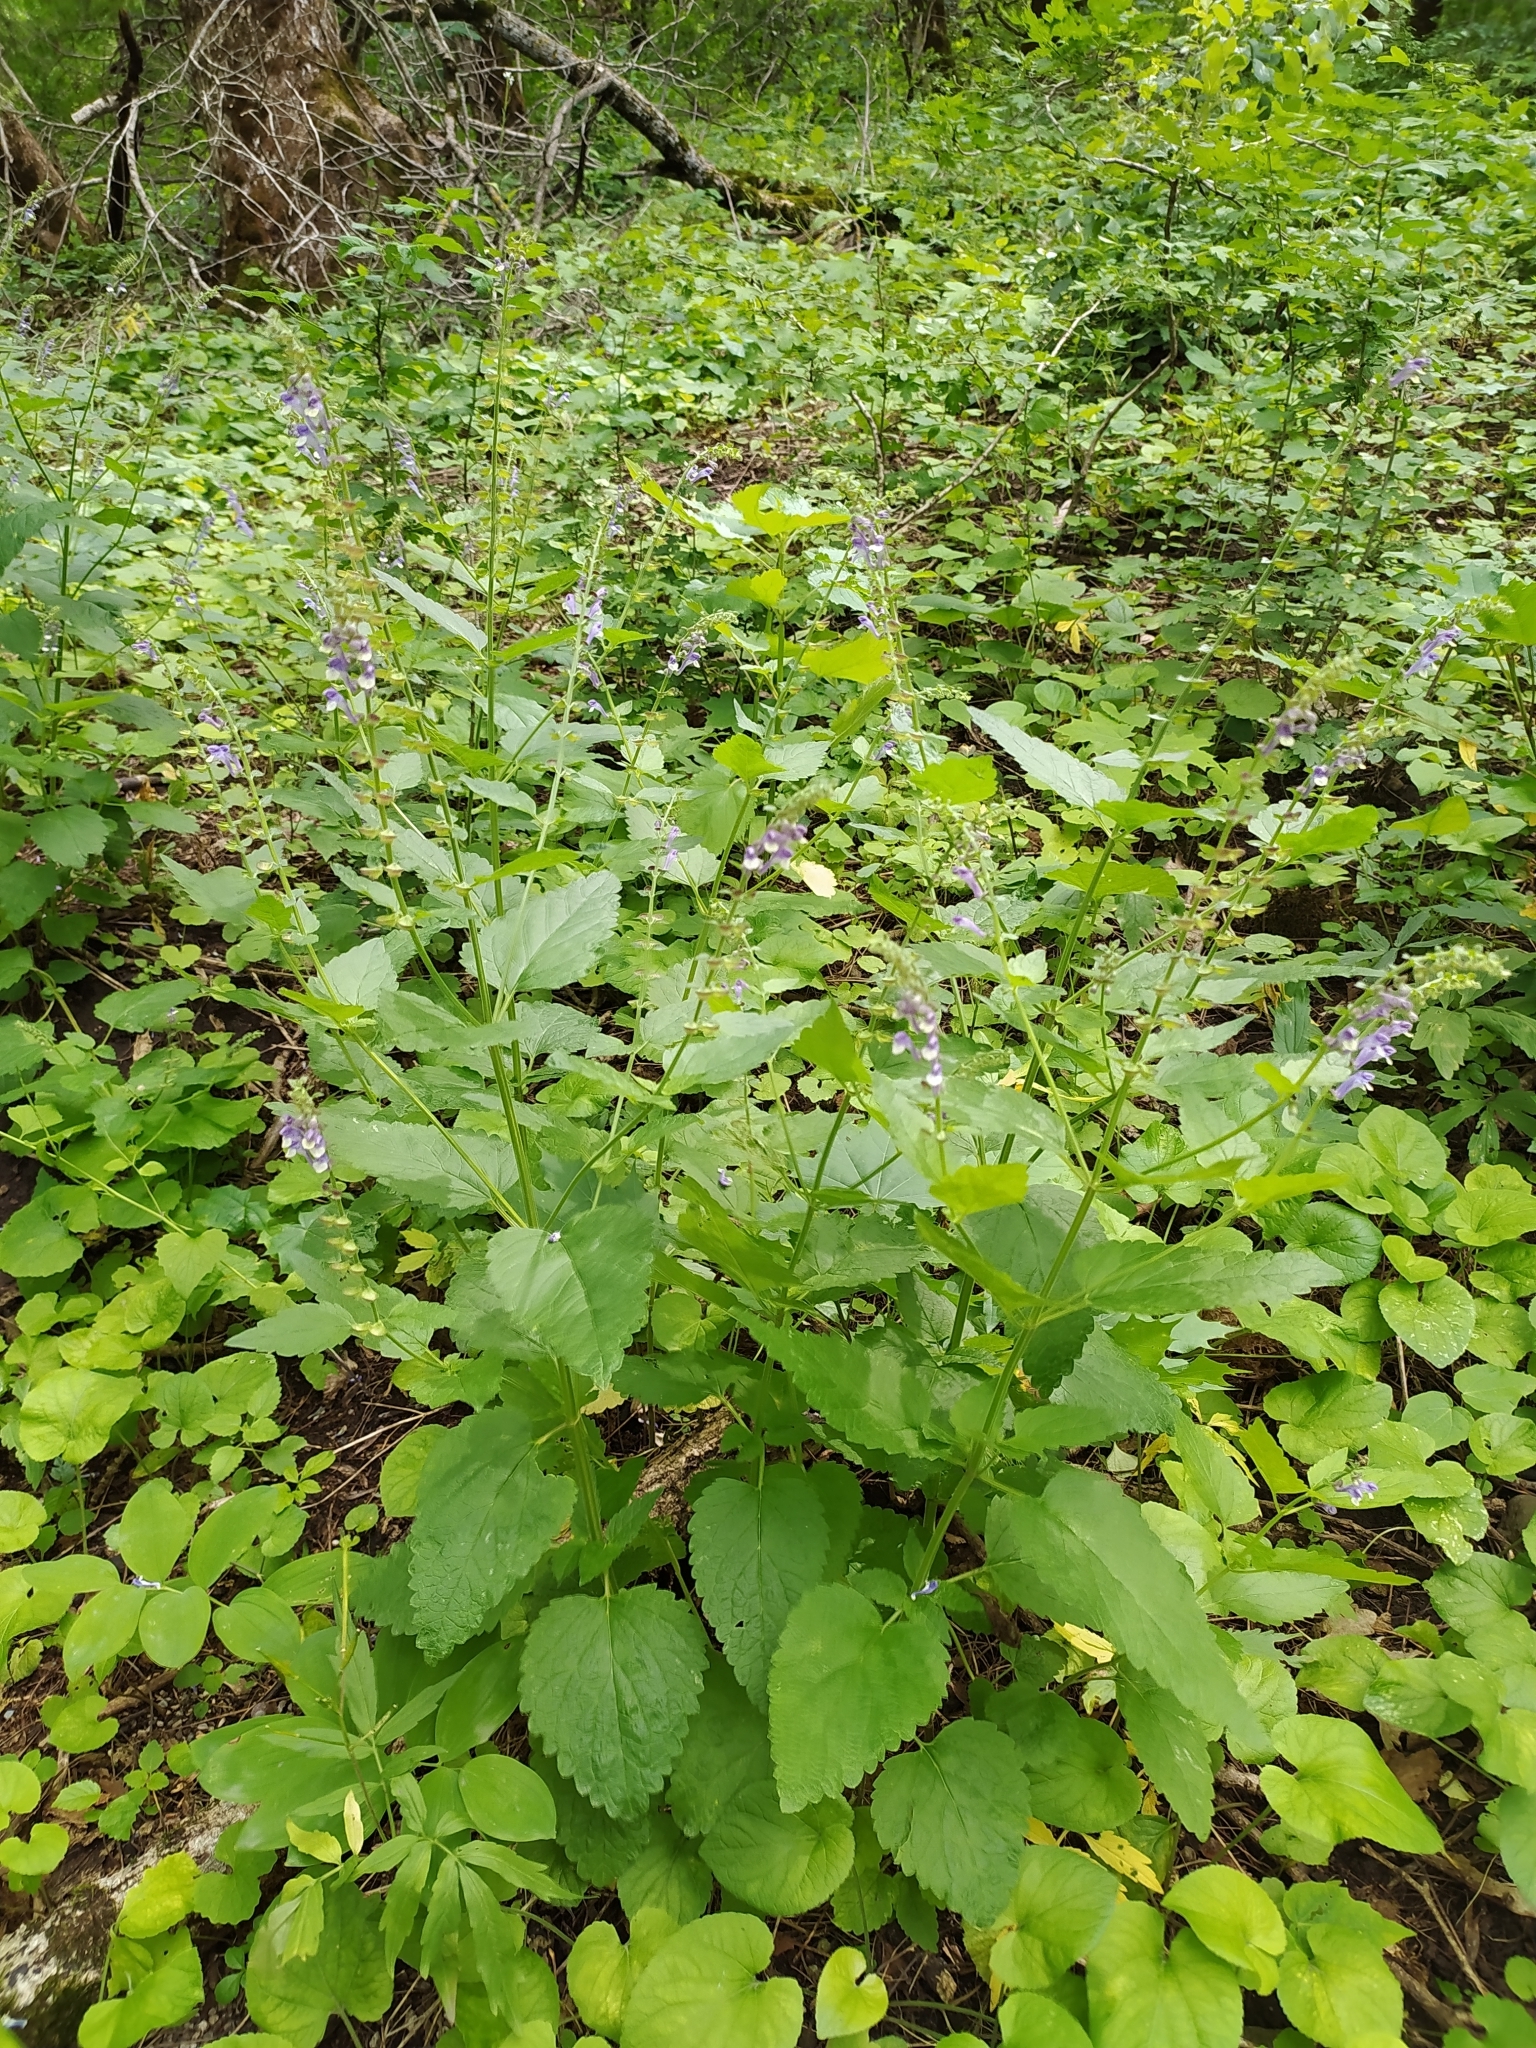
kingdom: Plantae
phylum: Tracheophyta
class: Magnoliopsida
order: Lamiales
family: Lamiaceae
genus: Scutellaria
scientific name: Scutellaria altissima
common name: Somerset skullcap
